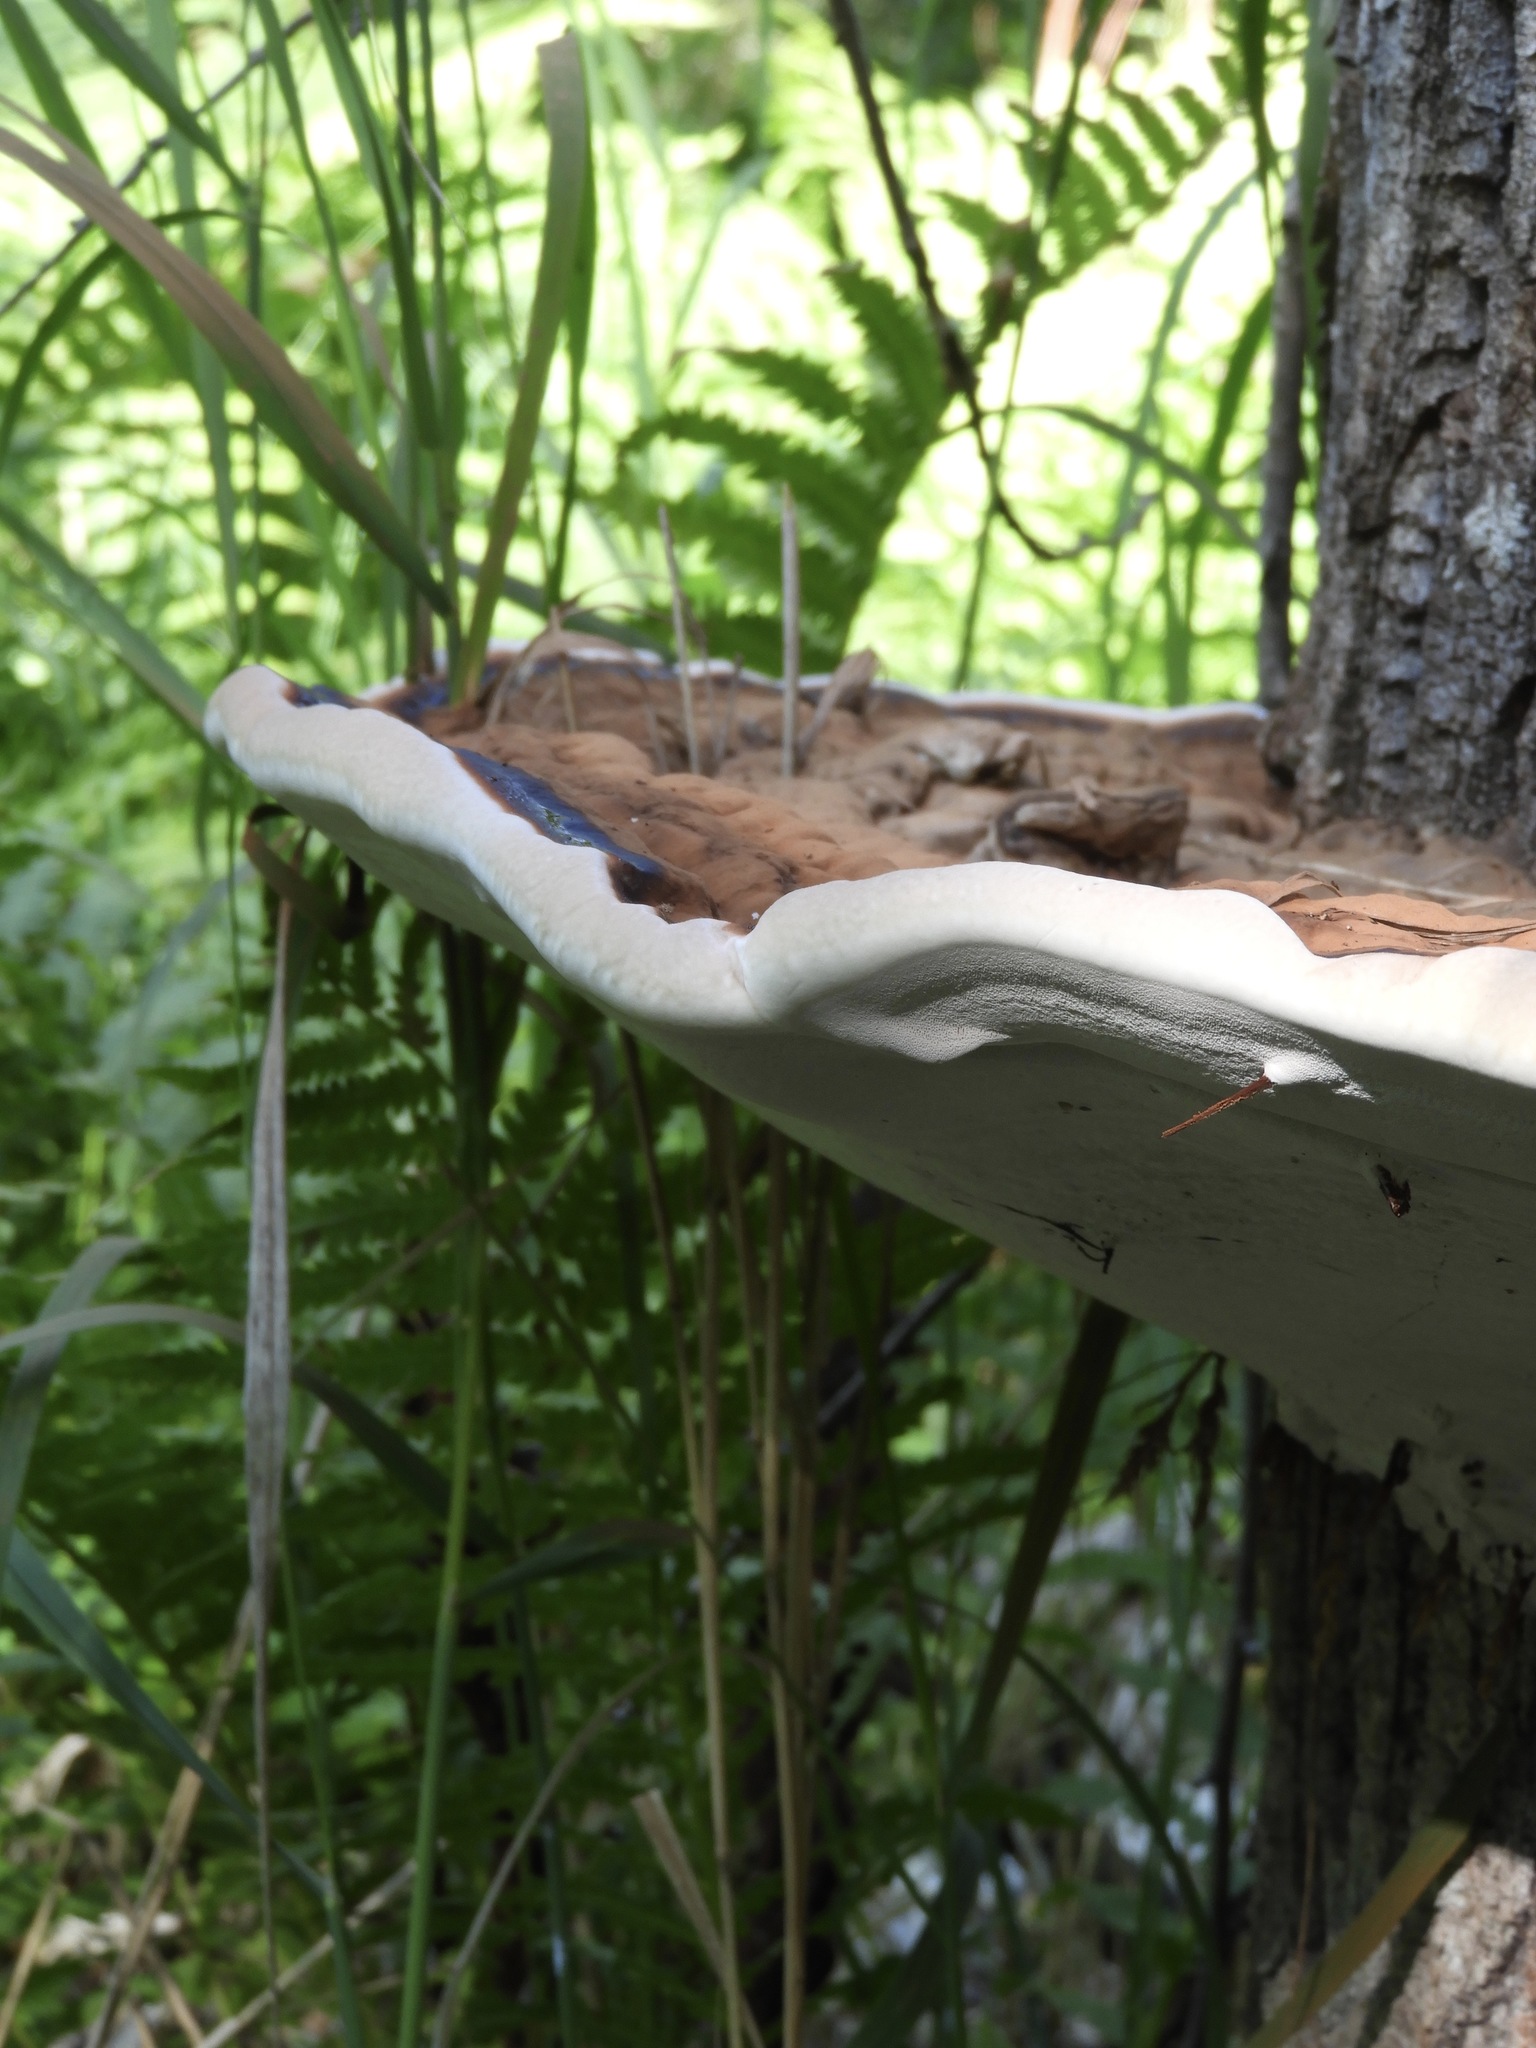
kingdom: Fungi
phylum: Basidiomycota
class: Agaricomycetes
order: Polyporales
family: Polyporaceae
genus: Ganoderma
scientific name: Ganoderma applanatum
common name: Artist's bracket
